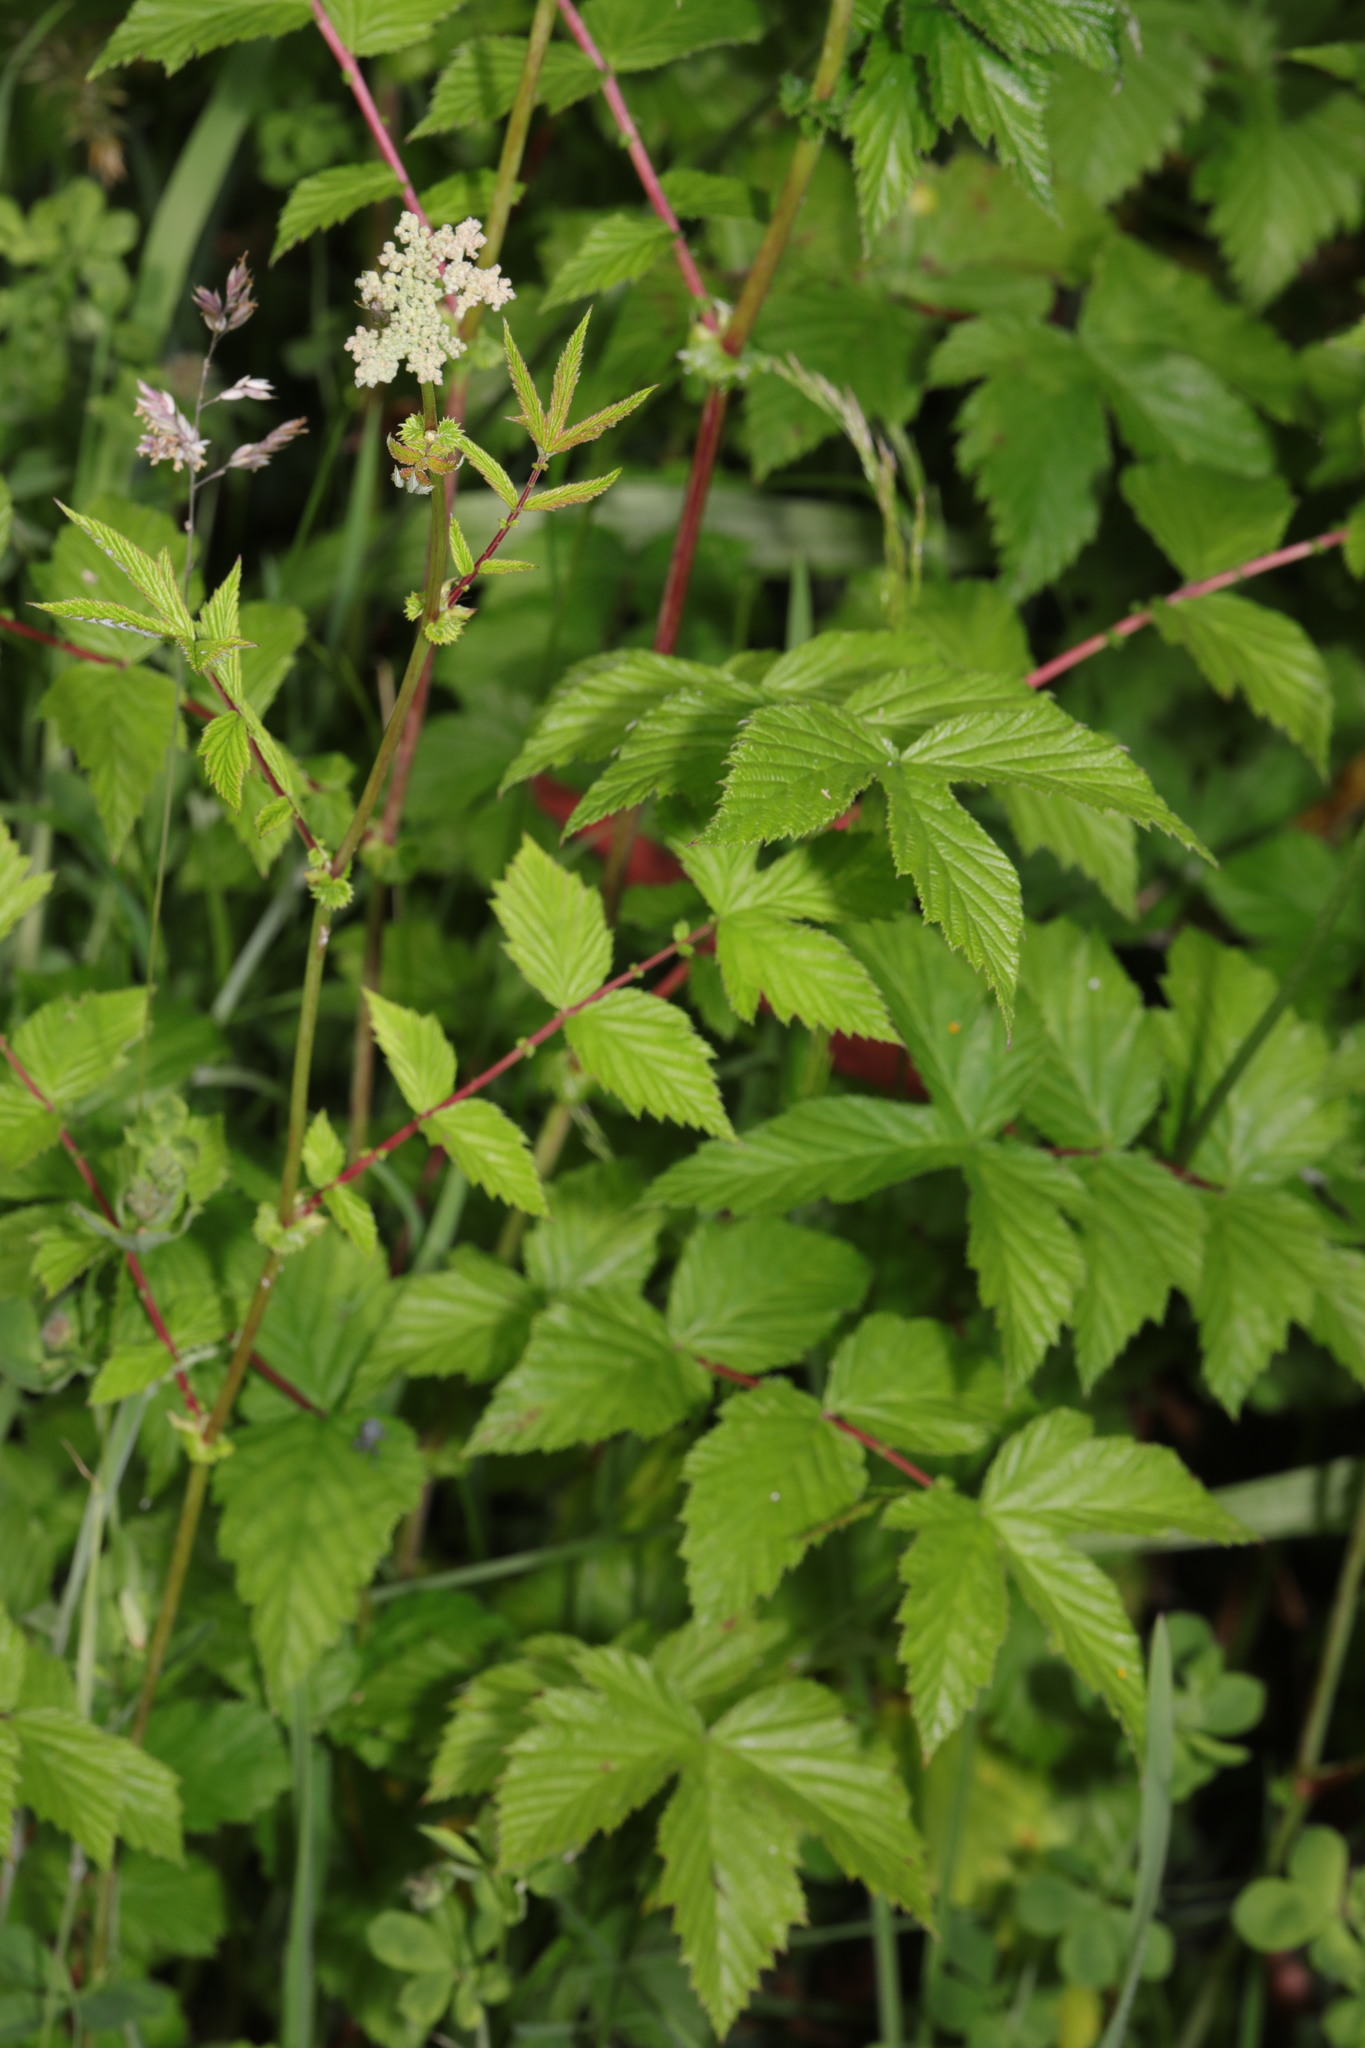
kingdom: Plantae
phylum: Tracheophyta
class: Magnoliopsida
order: Rosales
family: Rosaceae
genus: Filipendula
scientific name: Filipendula ulmaria
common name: Meadowsweet
